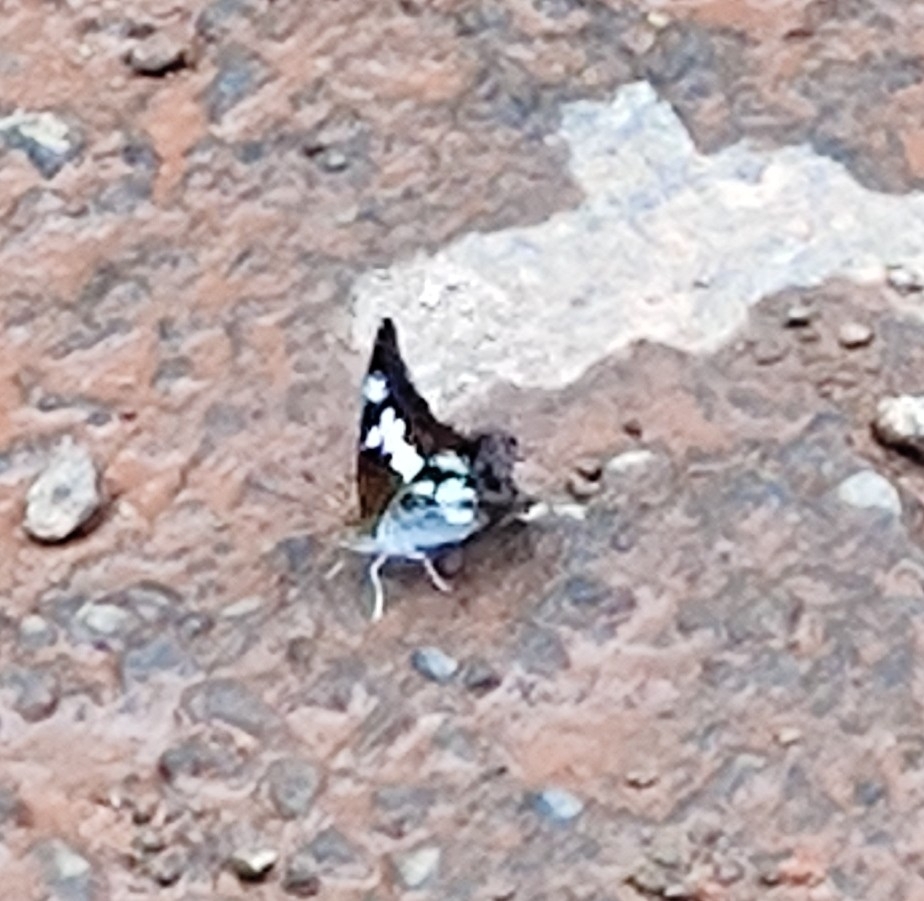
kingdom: Animalia
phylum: Arthropoda
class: Insecta
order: Lepidoptera
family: Nymphalidae
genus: Limenitis
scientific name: Limenitis Moduza procris
